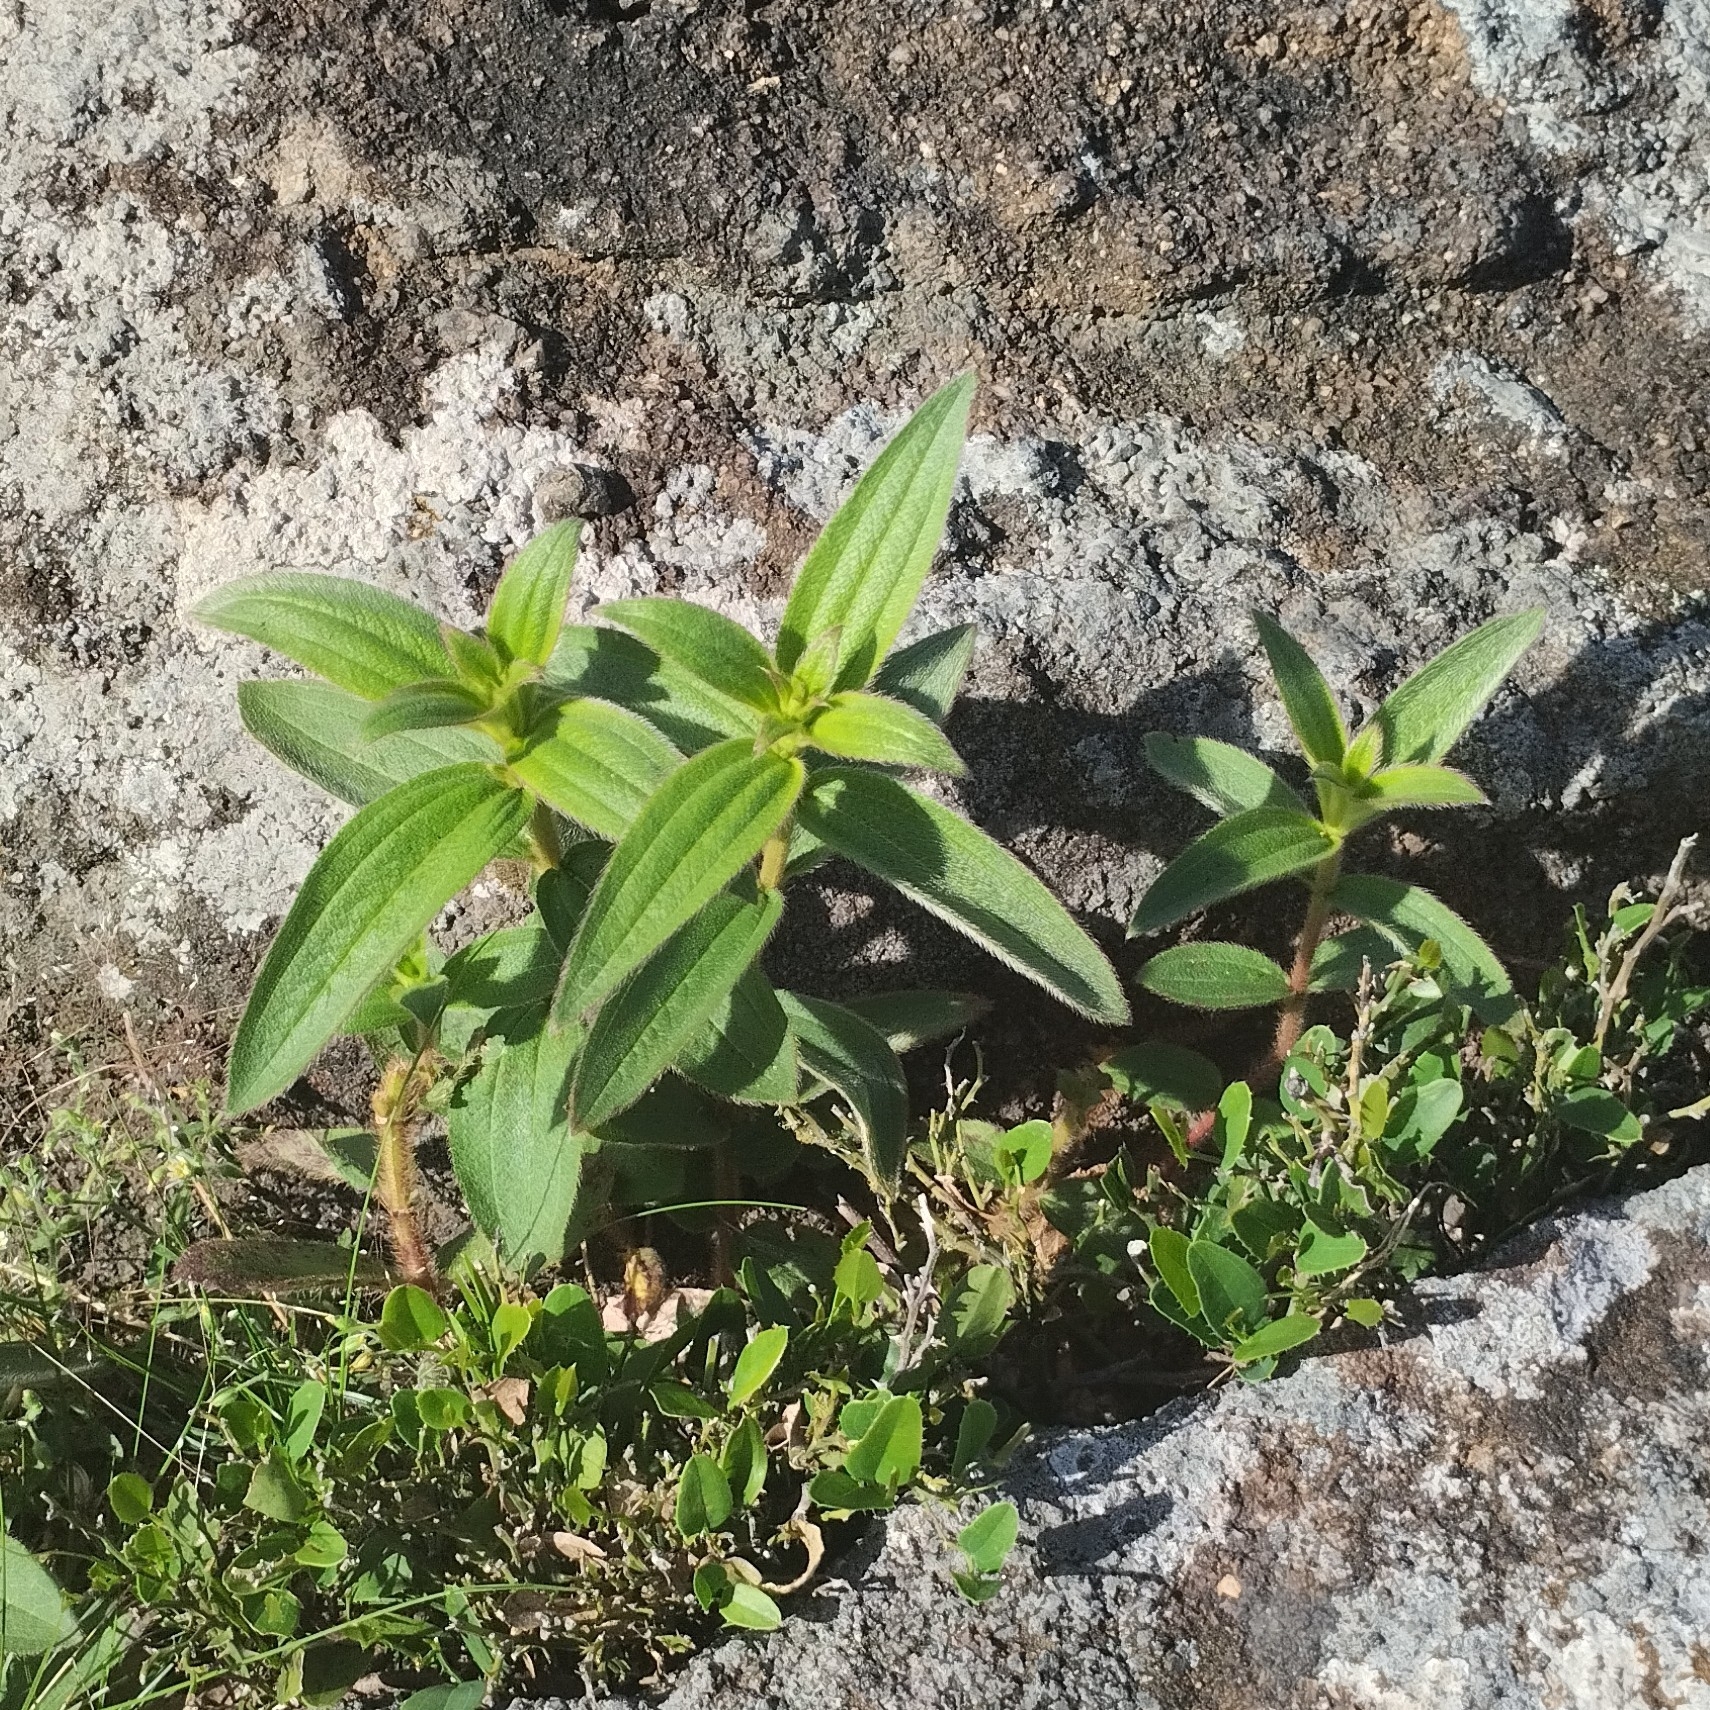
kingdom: Plantae
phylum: Tracheophyta
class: Magnoliopsida
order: Myrtales
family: Melastomataceae
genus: Chaetogastra
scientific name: Chaetogastra gracilis
